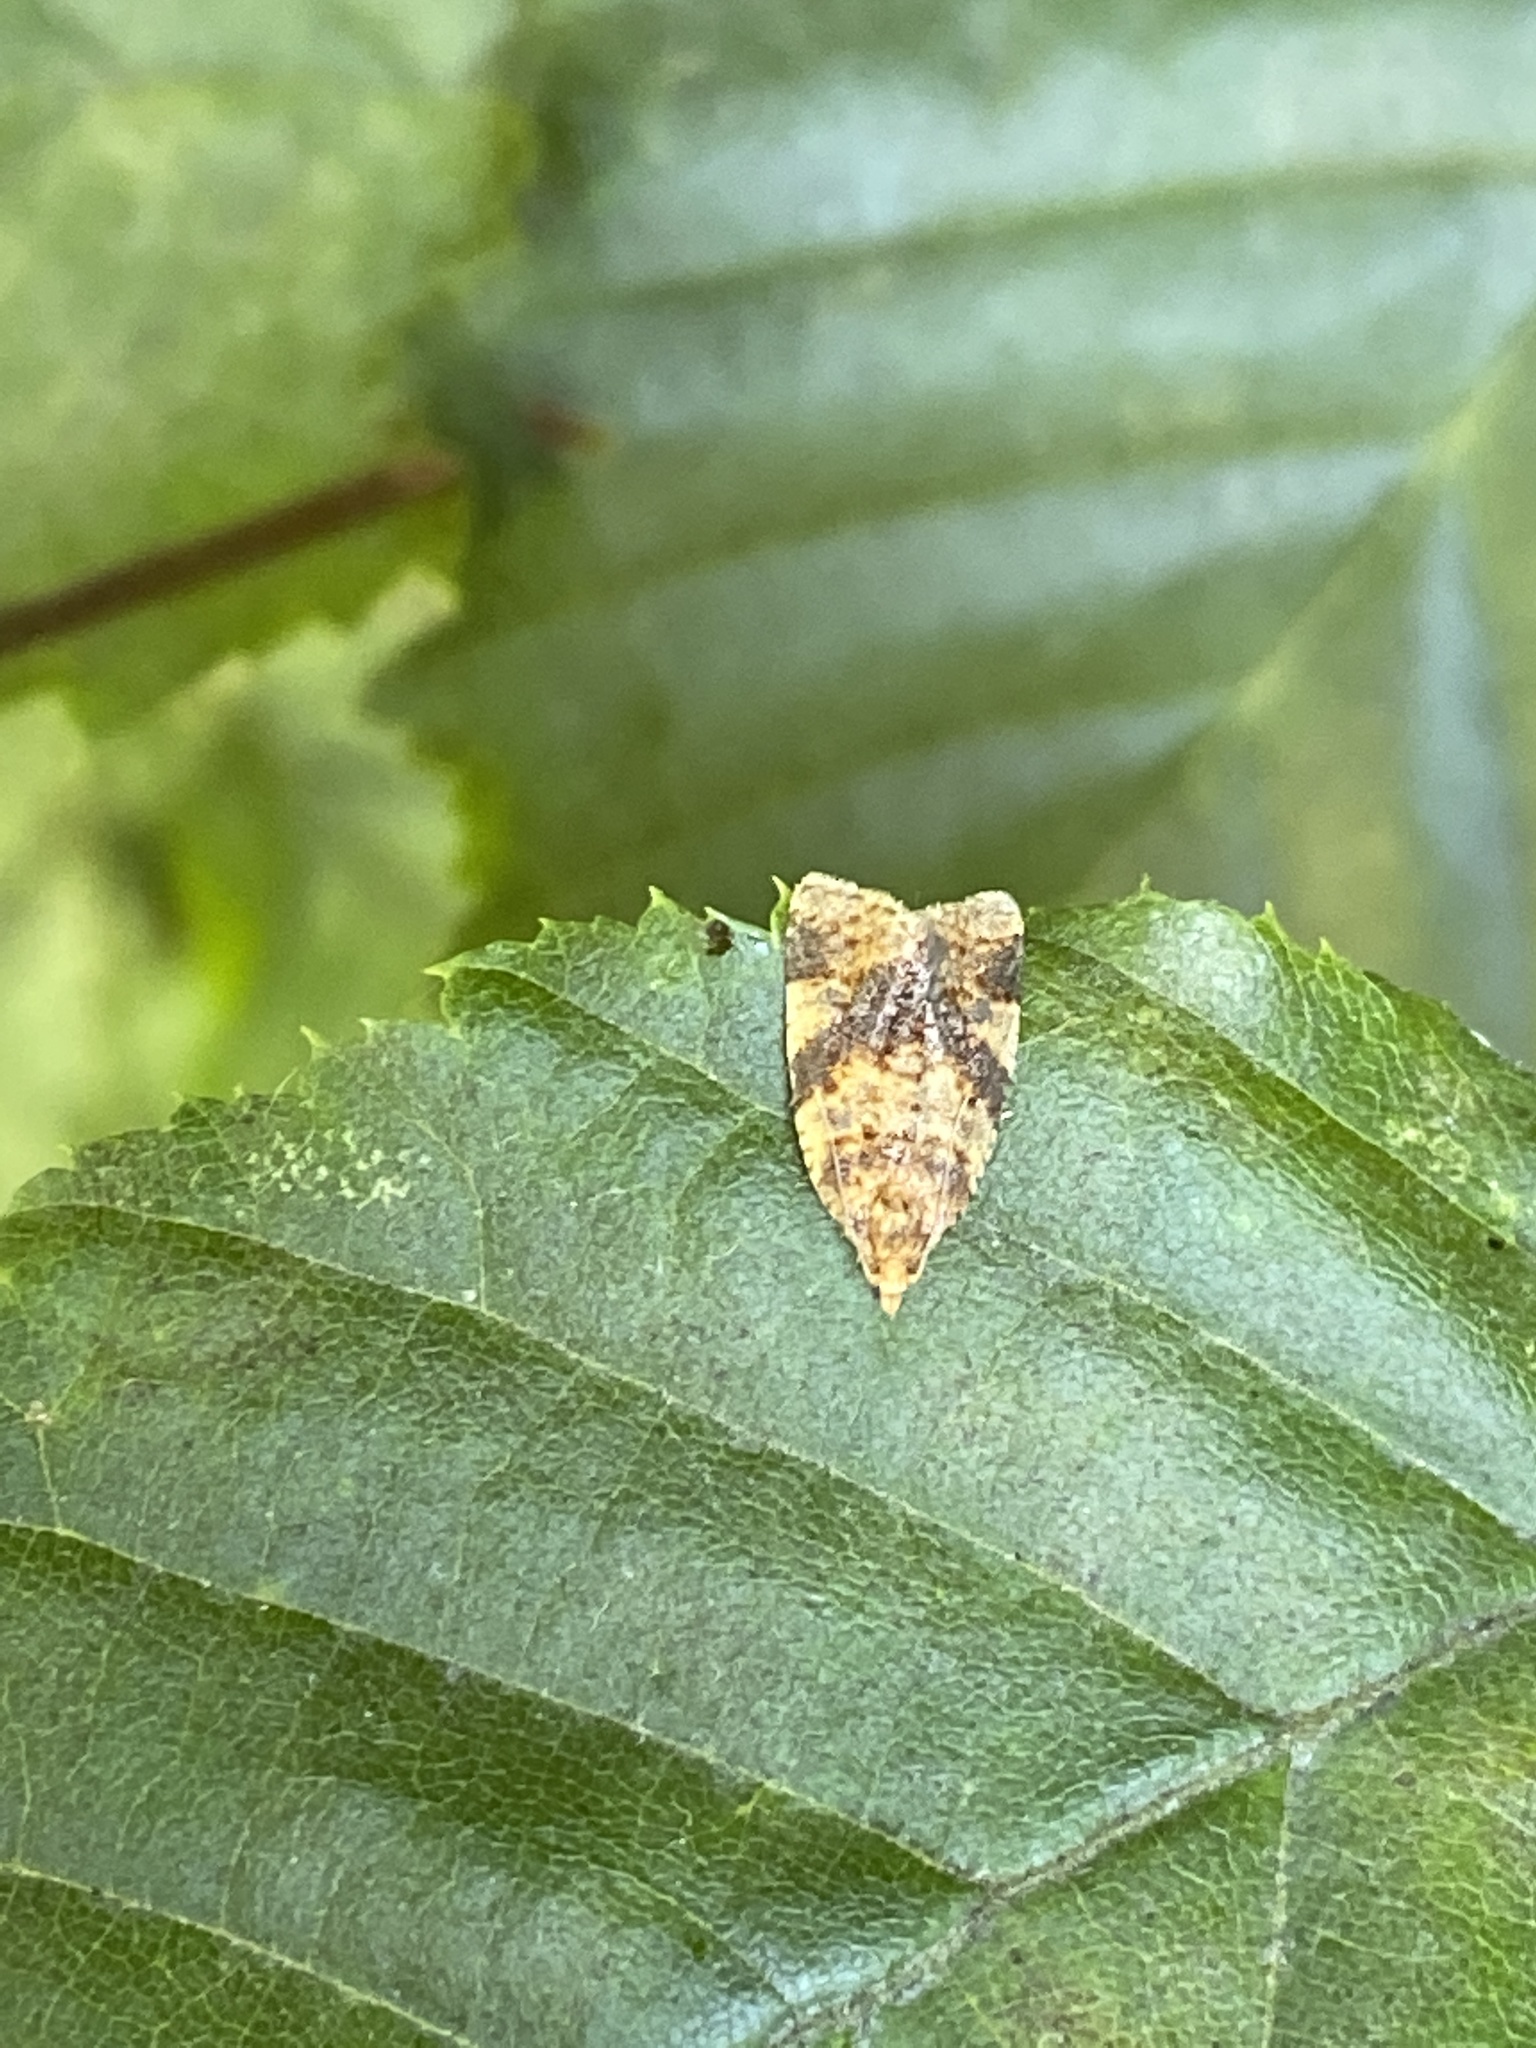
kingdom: Animalia
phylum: Arthropoda
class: Insecta
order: Lepidoptera
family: Tortricidae
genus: Epagoge
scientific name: Epagoge grotiana
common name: Brown-barred twist
